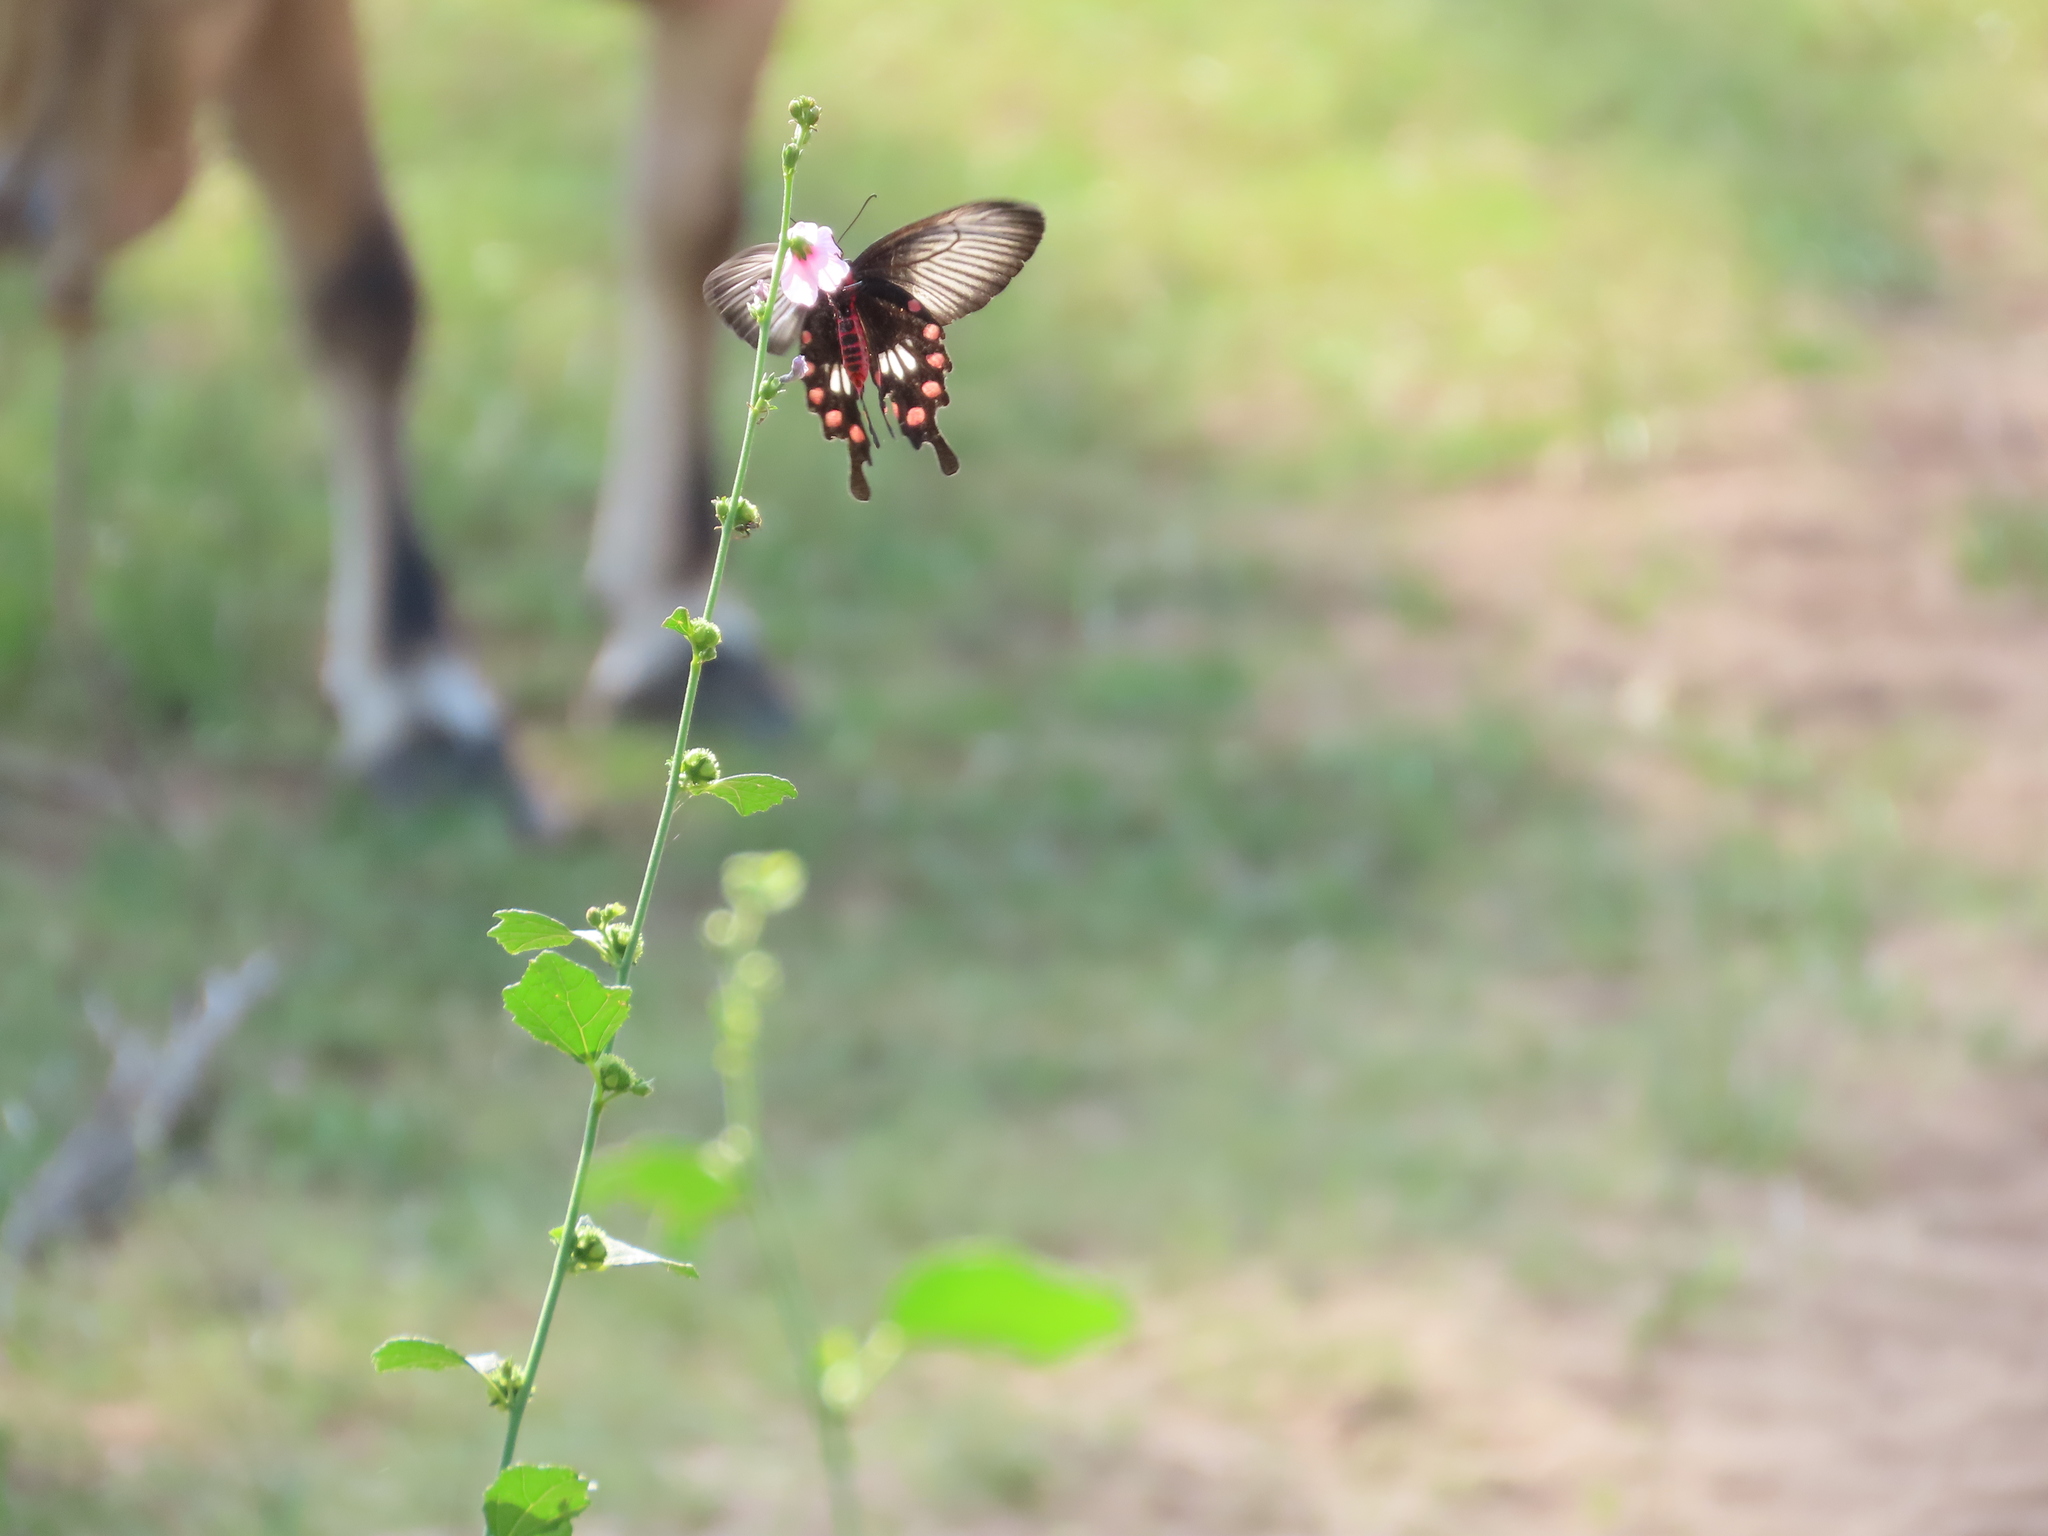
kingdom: Animalia
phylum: Arthropoda
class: Insecta
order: Lepidoptera
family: Papilionidae
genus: Pachliopta
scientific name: Pachliopta aristolochiae
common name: Common rose
